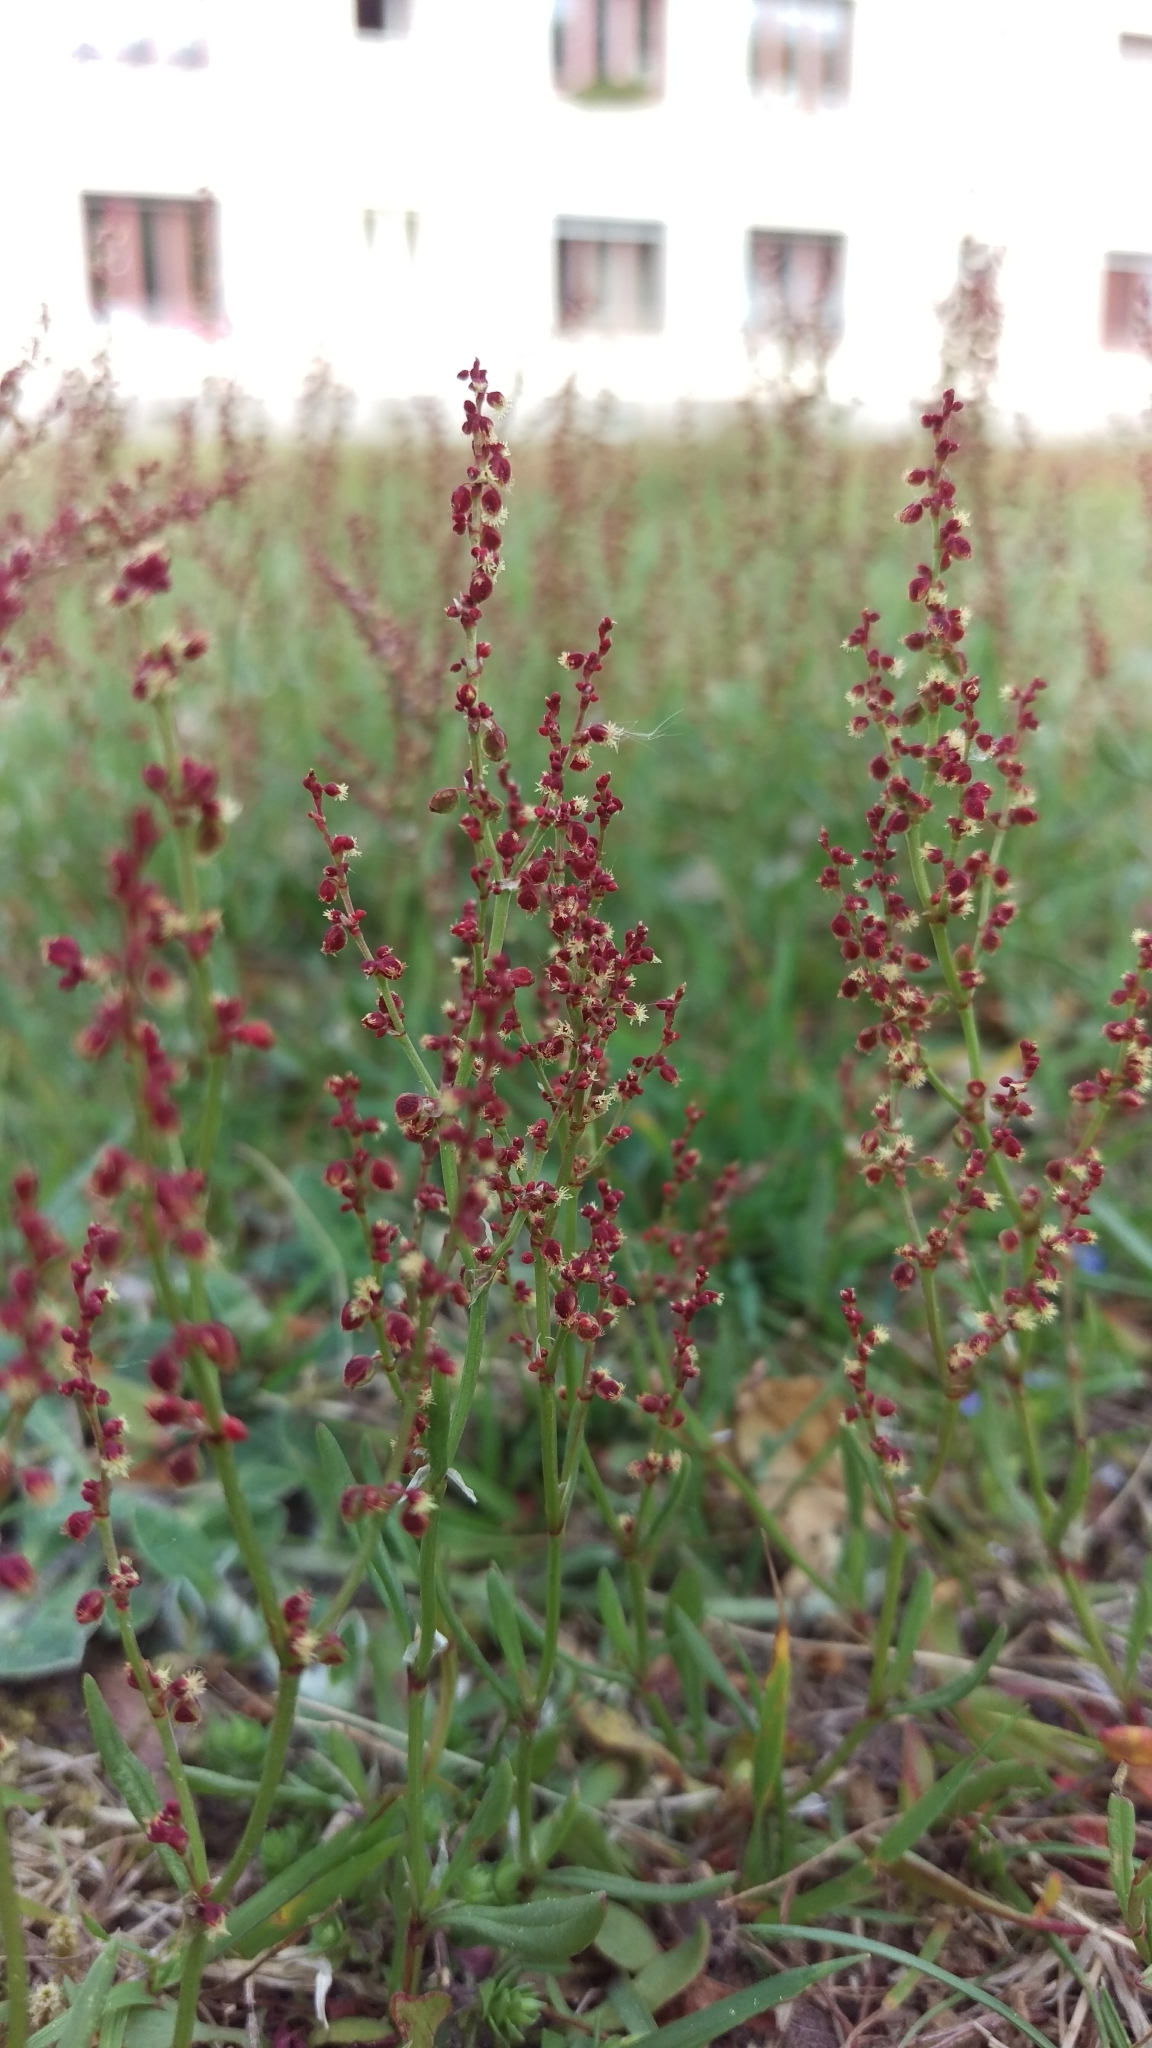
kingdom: Plantae
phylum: Tracheophyta
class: Magnoliopsida
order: Caryophyllales
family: Polygonaceae
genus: Rumex
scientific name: Rumex acetosella
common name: Common sheep sorrel
